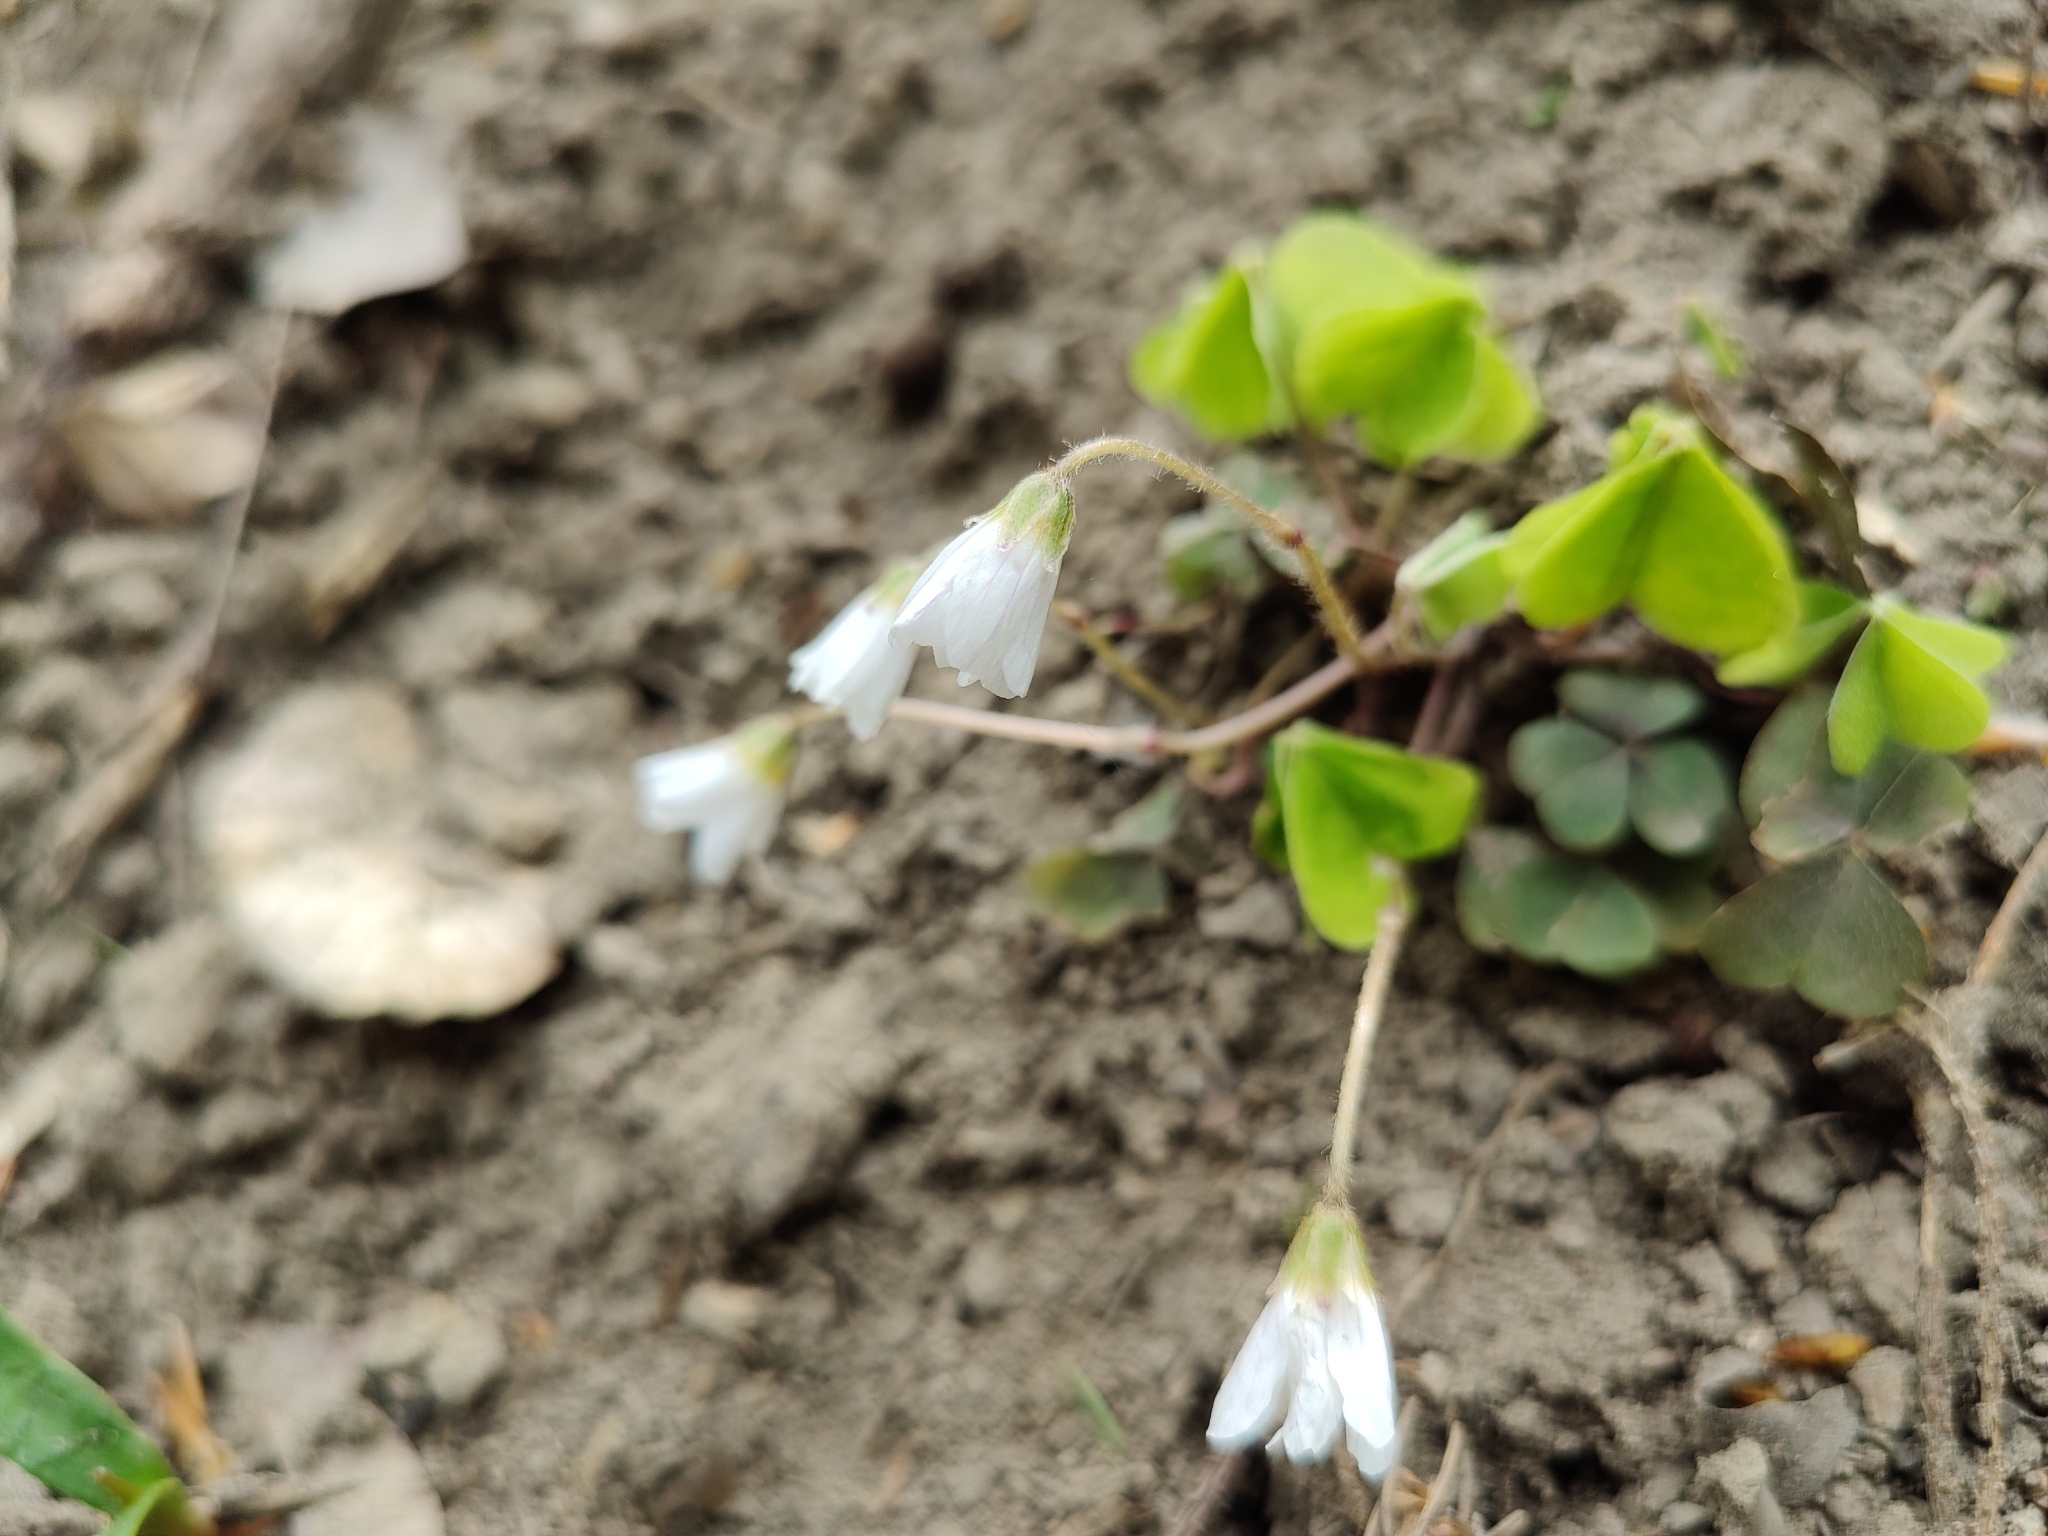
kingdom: Plantae
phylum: Tracheophyta
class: Magnoliopsida
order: Oxalidales
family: Oxalidaceae
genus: Oxalis
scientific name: Oxalis acetosella
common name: Wood-sorrel
